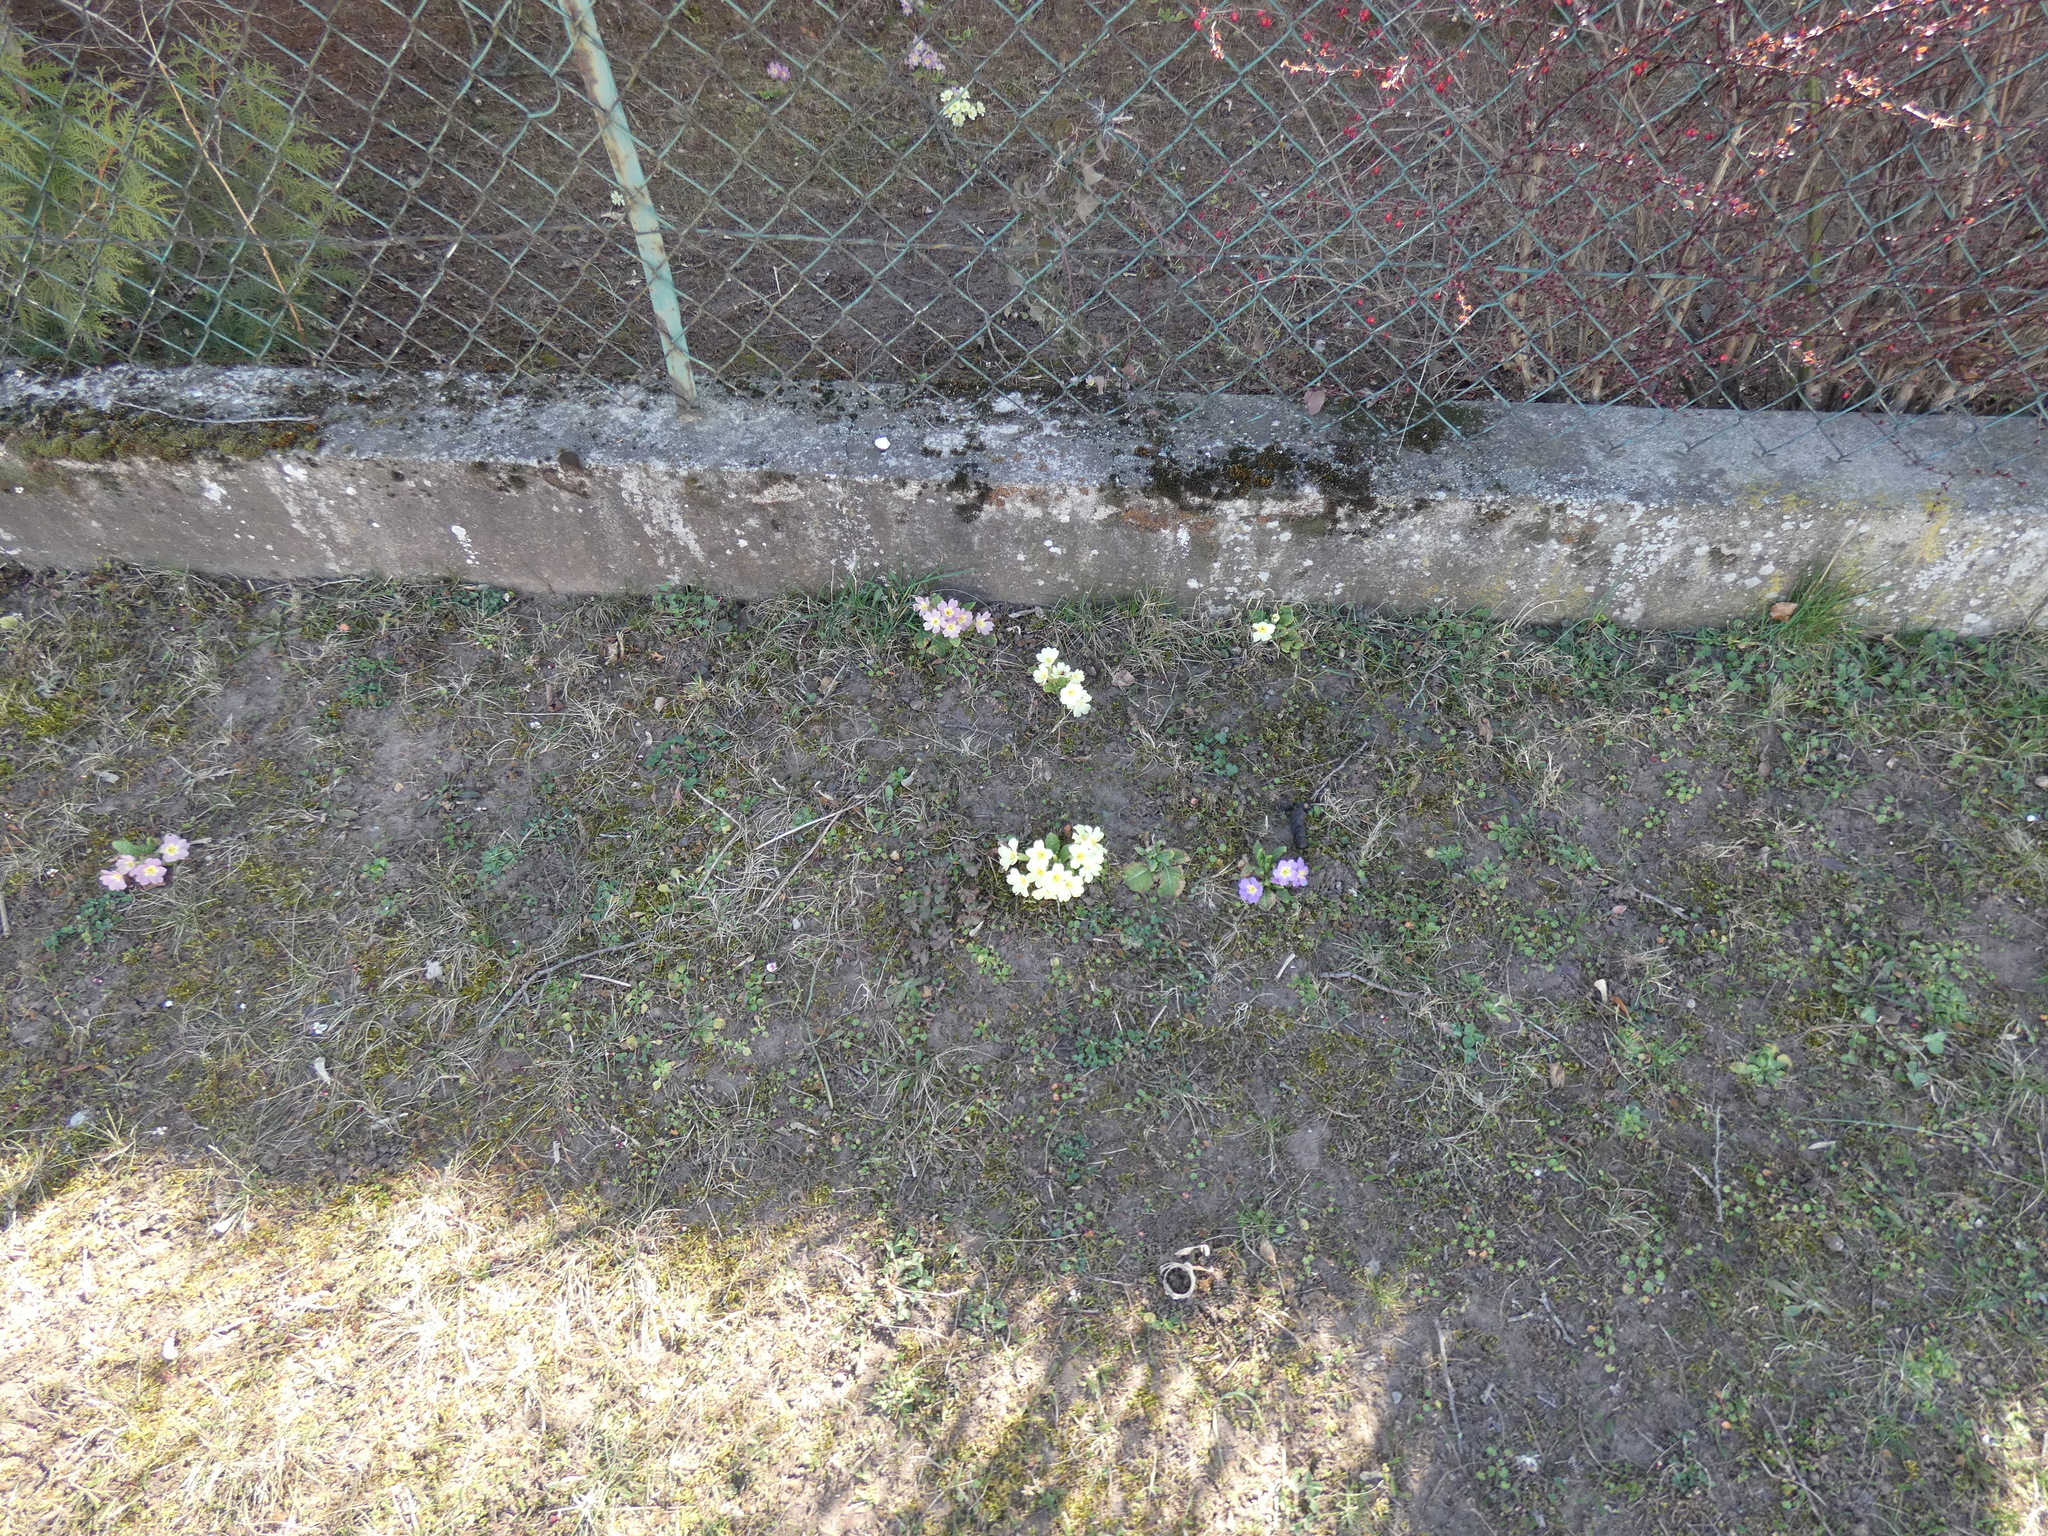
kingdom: Plantae
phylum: Tracheophyta
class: Magnoliopsida
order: Ericales
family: Primulaceae
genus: Primula
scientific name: Primula vulgaris
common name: Primrose
